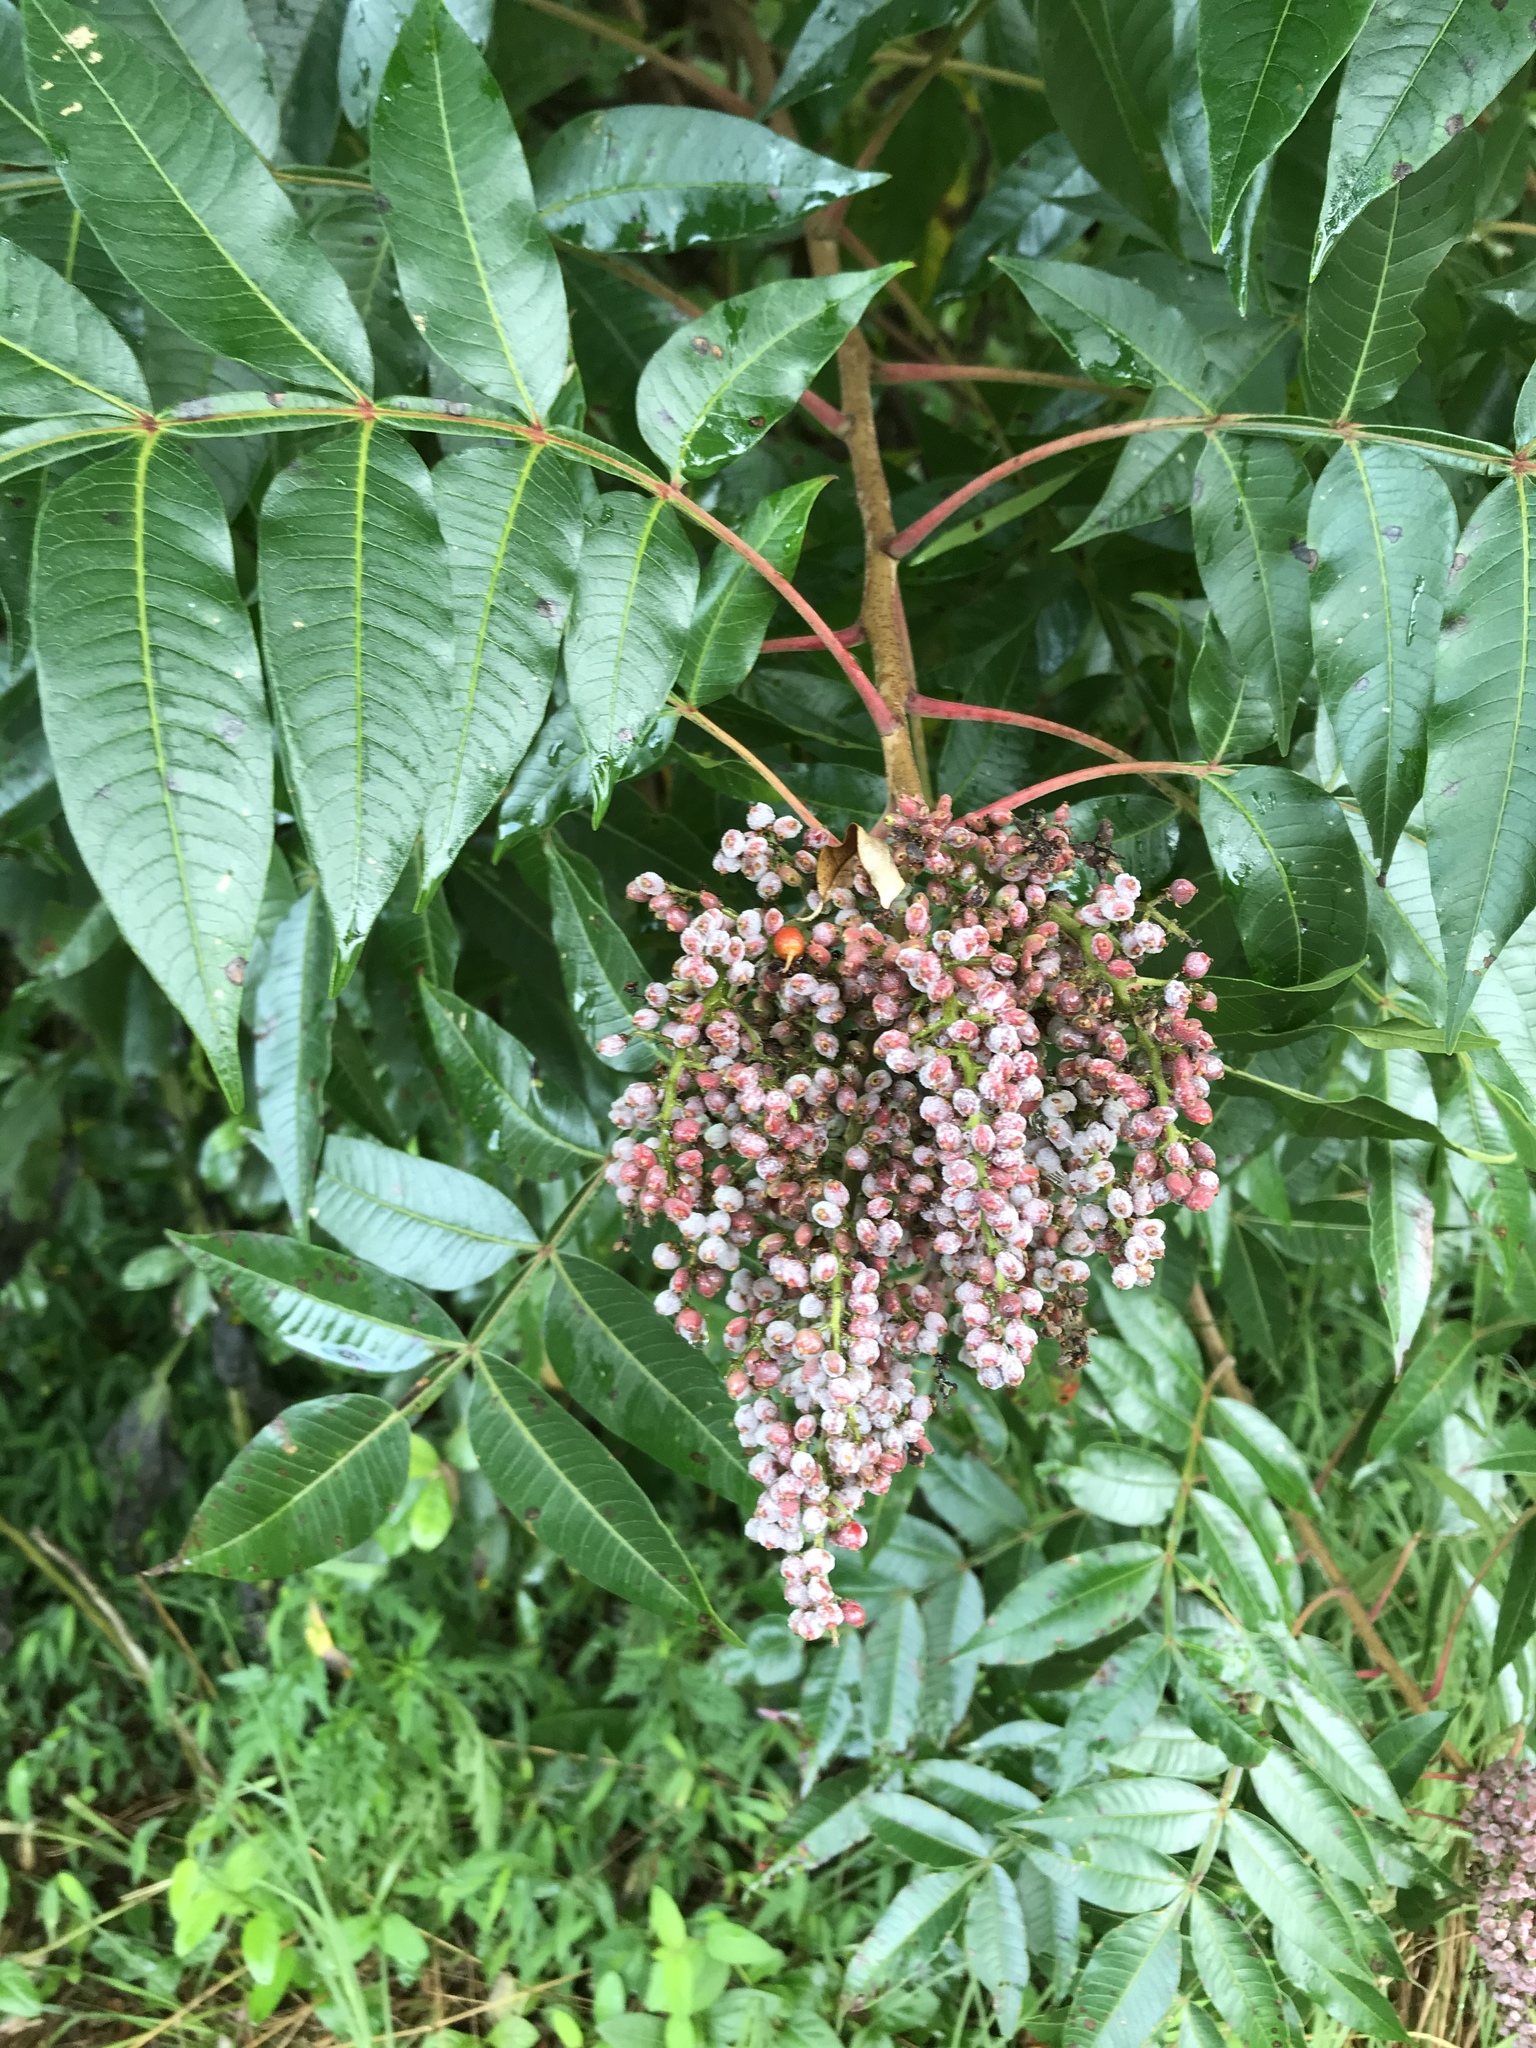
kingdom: Plantae
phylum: Tracheophyta
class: Magnoliopsida
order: Sapindales
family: Anacardiaceae
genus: Rhus
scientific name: Rhus copallina
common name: Shining sumac
